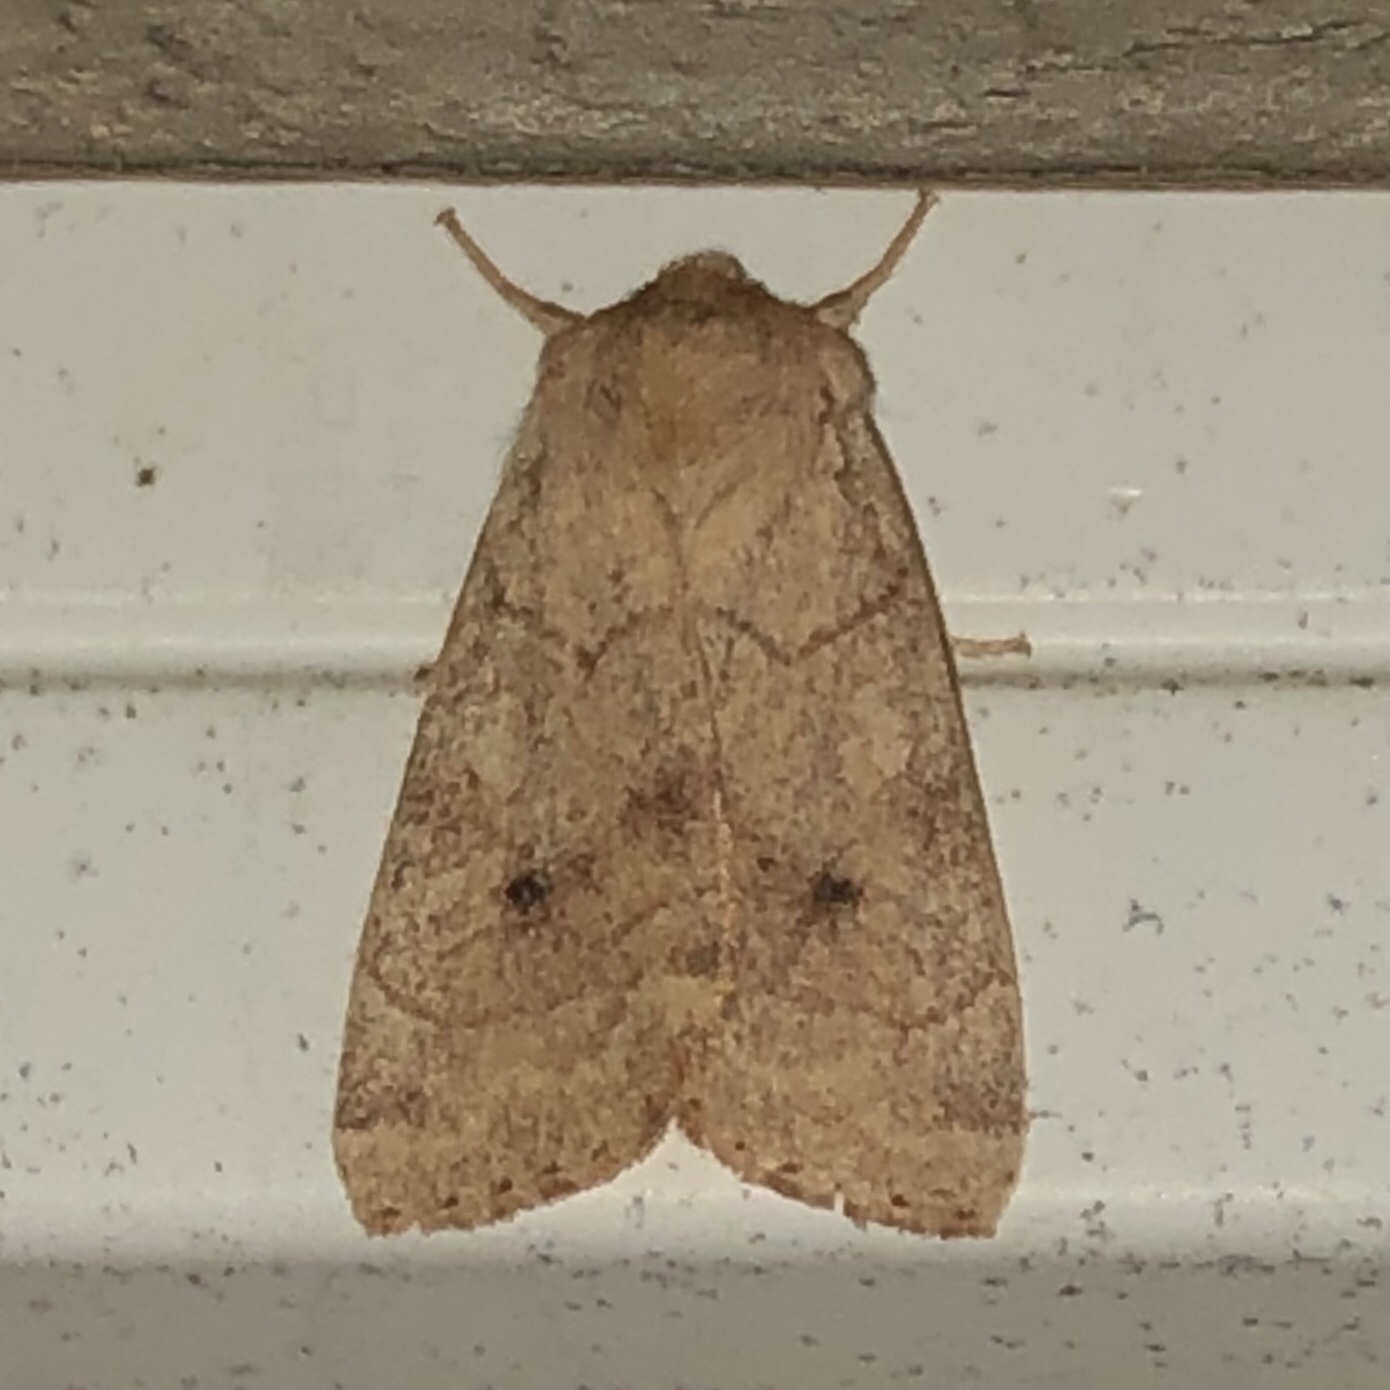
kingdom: Animalia
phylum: Arthropoda
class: Insecta
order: Lepidoptera
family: Noctuidae
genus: Enargia
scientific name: Enargia infumata
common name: Smoked sallow
